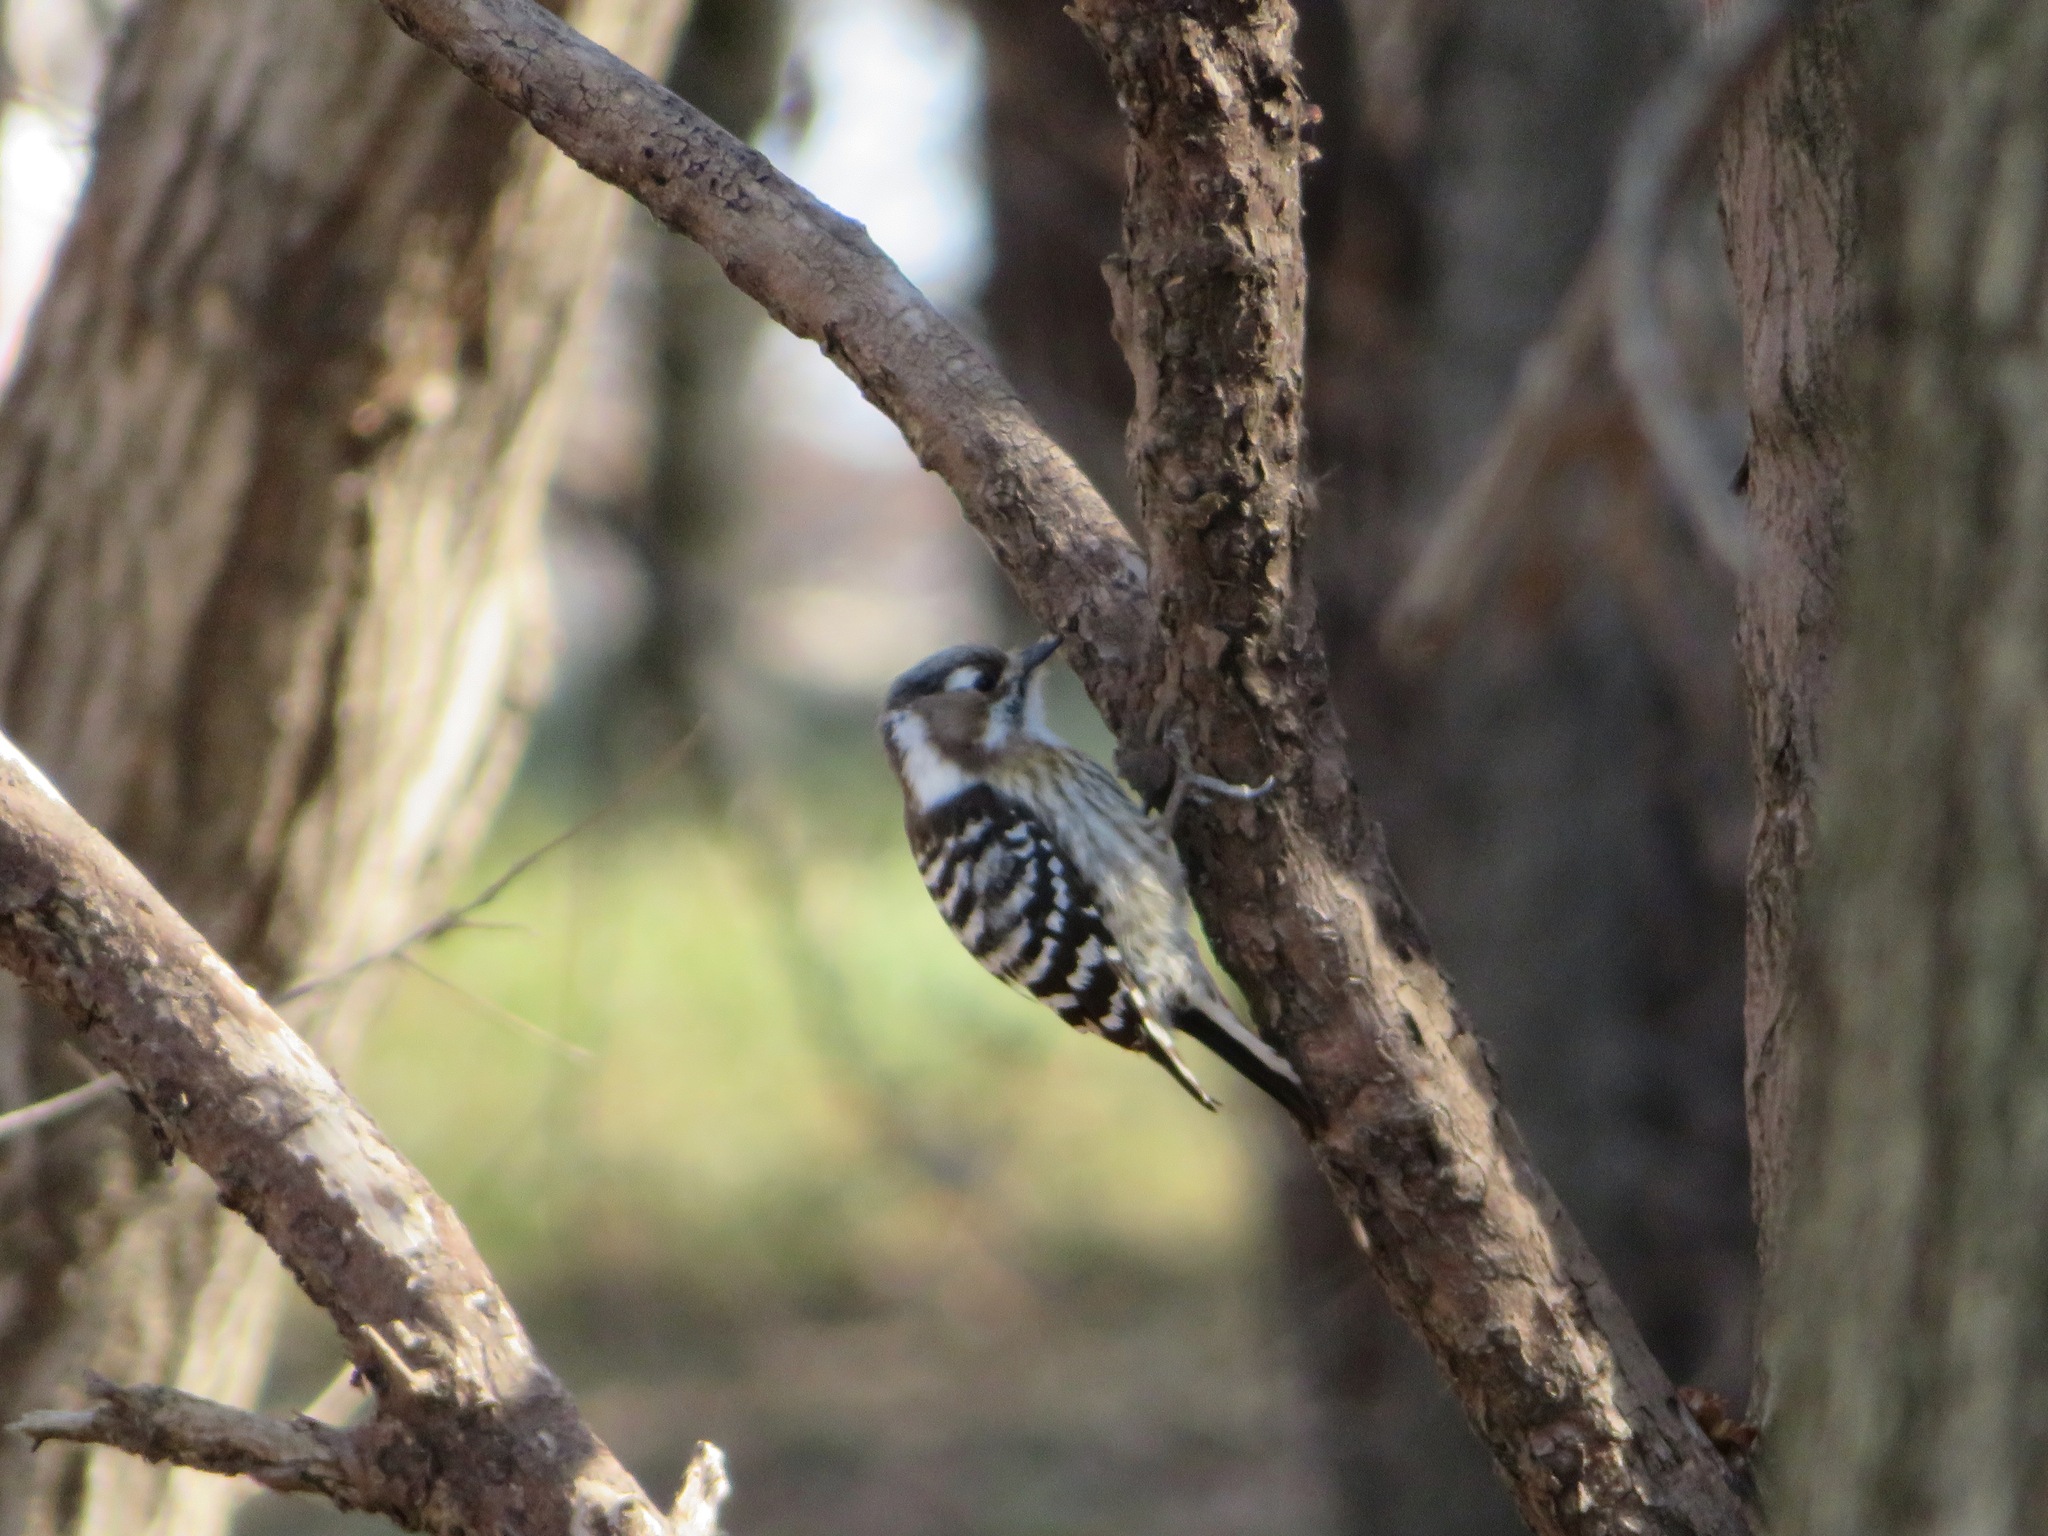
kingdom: Animalia
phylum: Chordata
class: Aves
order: Piciformes
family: Picidae
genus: Yungipicus
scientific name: Yungipicus kizuki
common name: Japanese pygmy woodpecker
